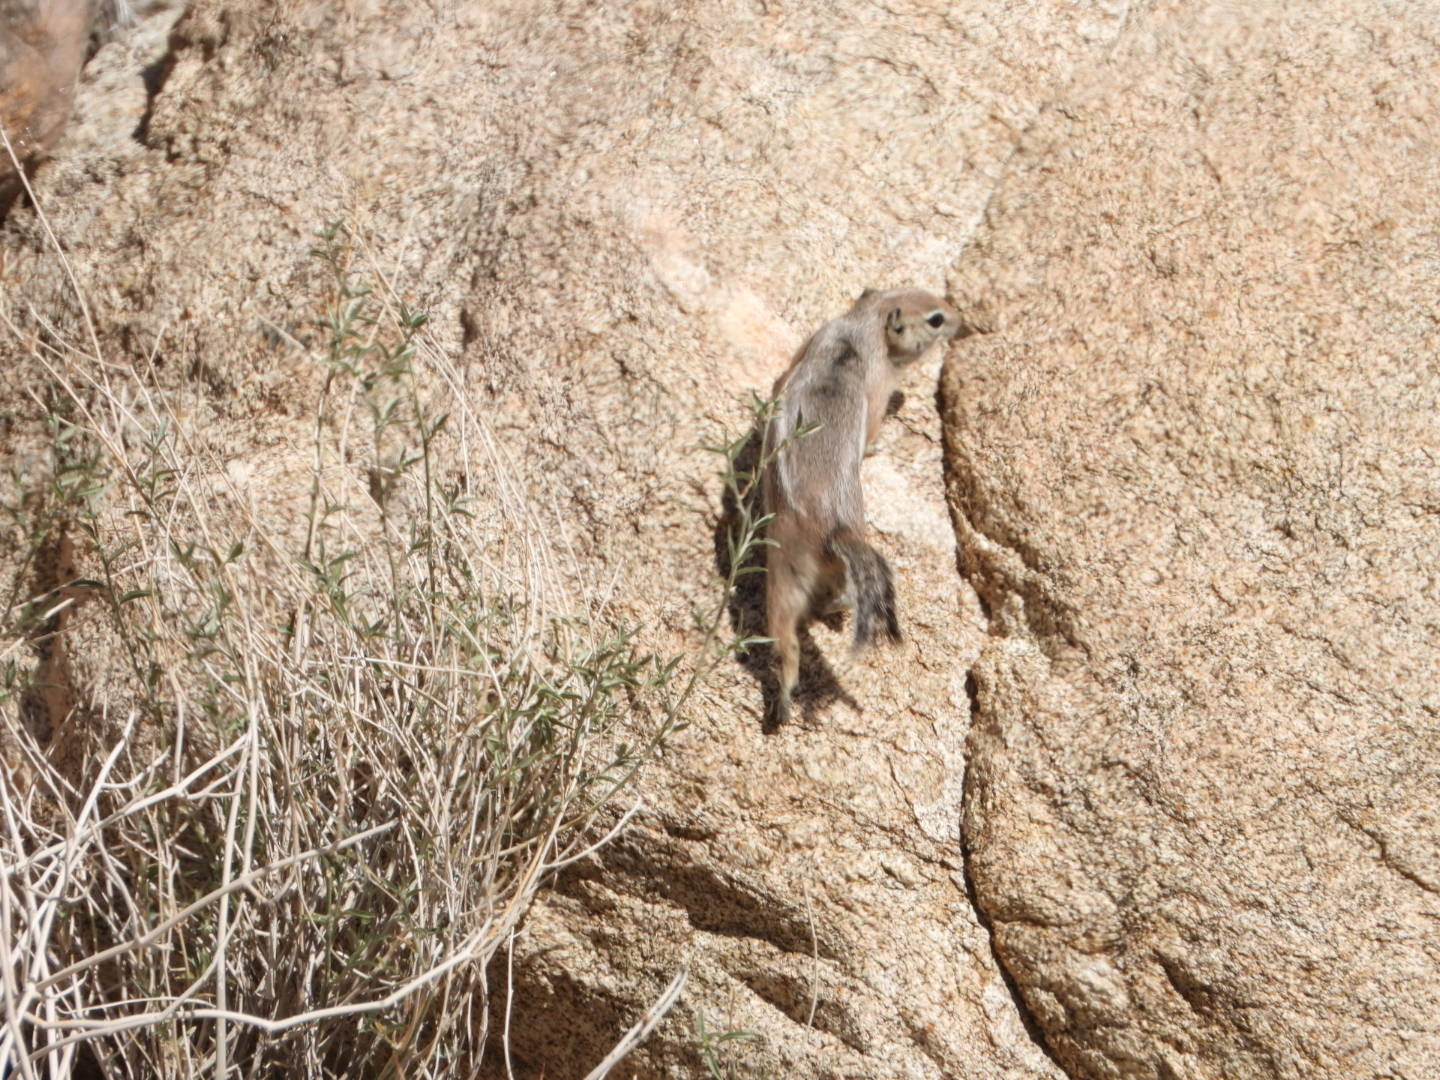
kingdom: Animalia
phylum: Chordata
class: Mammalia
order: Rodentia
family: Sciuridae
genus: Ammospermophilus
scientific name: Ammospermophilus leucurus
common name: White-tailed antelope squirrel
